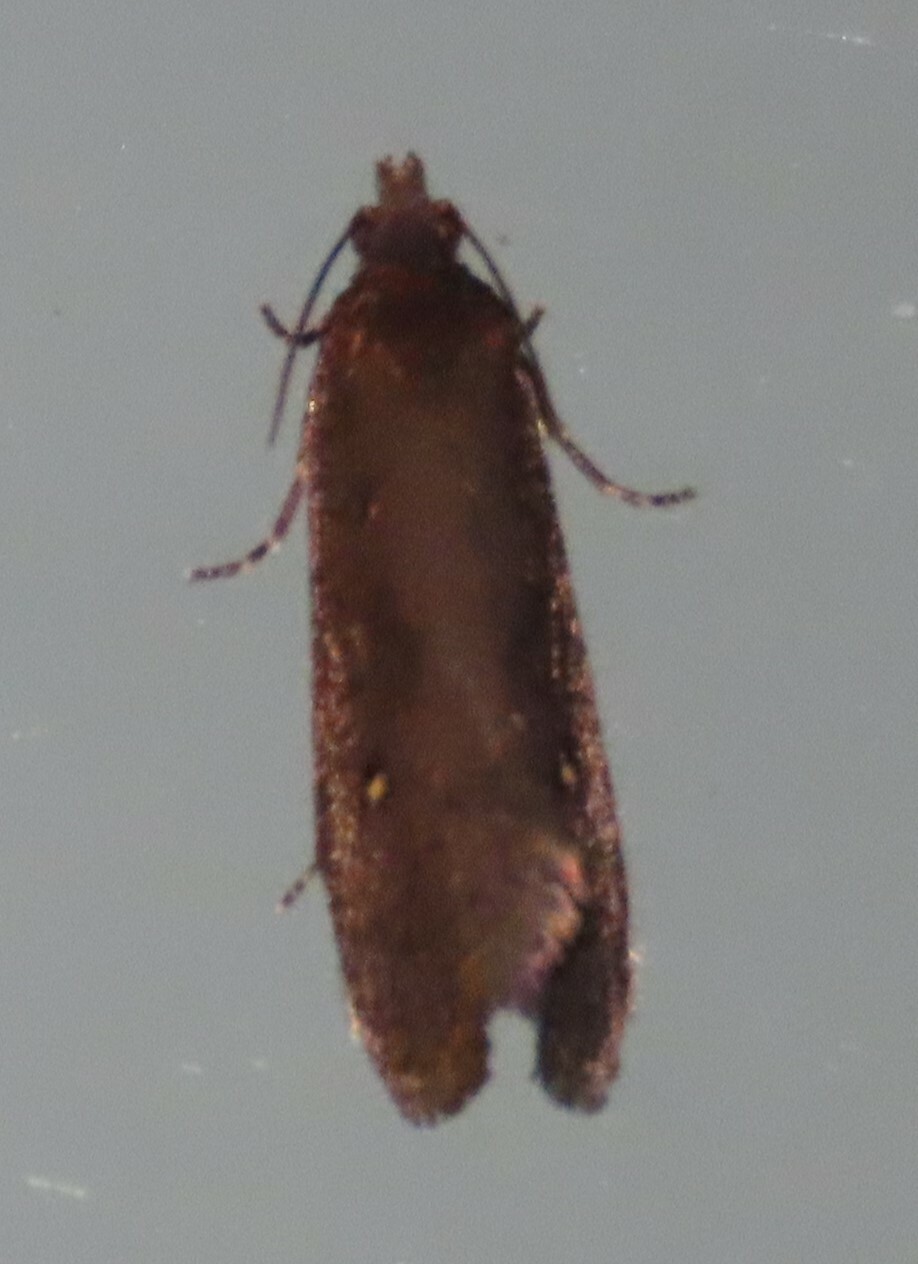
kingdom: Animalia
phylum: Arthropoda
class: Insecta
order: Lepidoptera
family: Tortricidae
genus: Cryptaspasma
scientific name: Cryptaspasma querula
